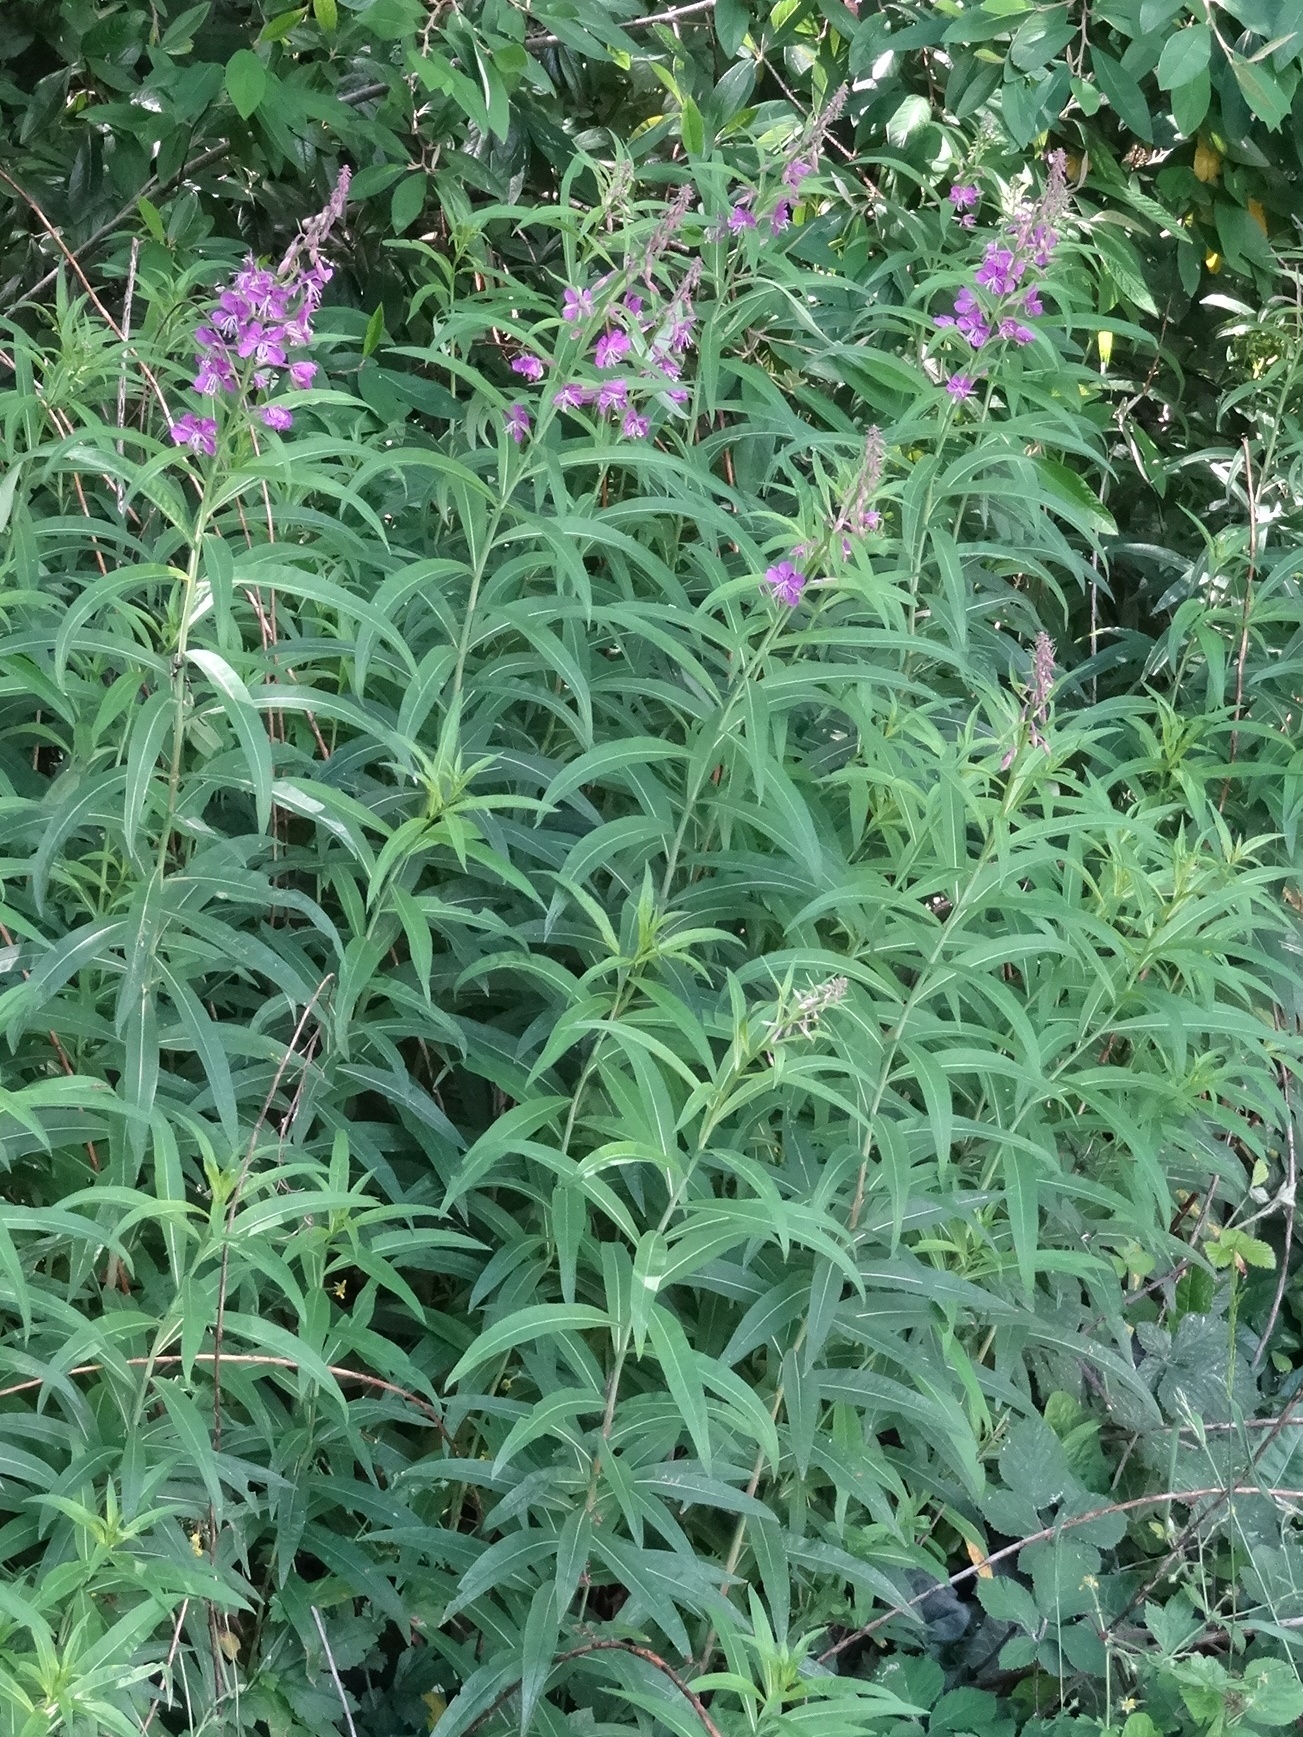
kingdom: Plantae
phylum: Tracheophyta
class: Magnoliopsida
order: Myrtales
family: Onagraceae
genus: Chamaenerion
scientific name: Chamaenerion angustifolium
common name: Fireweed
